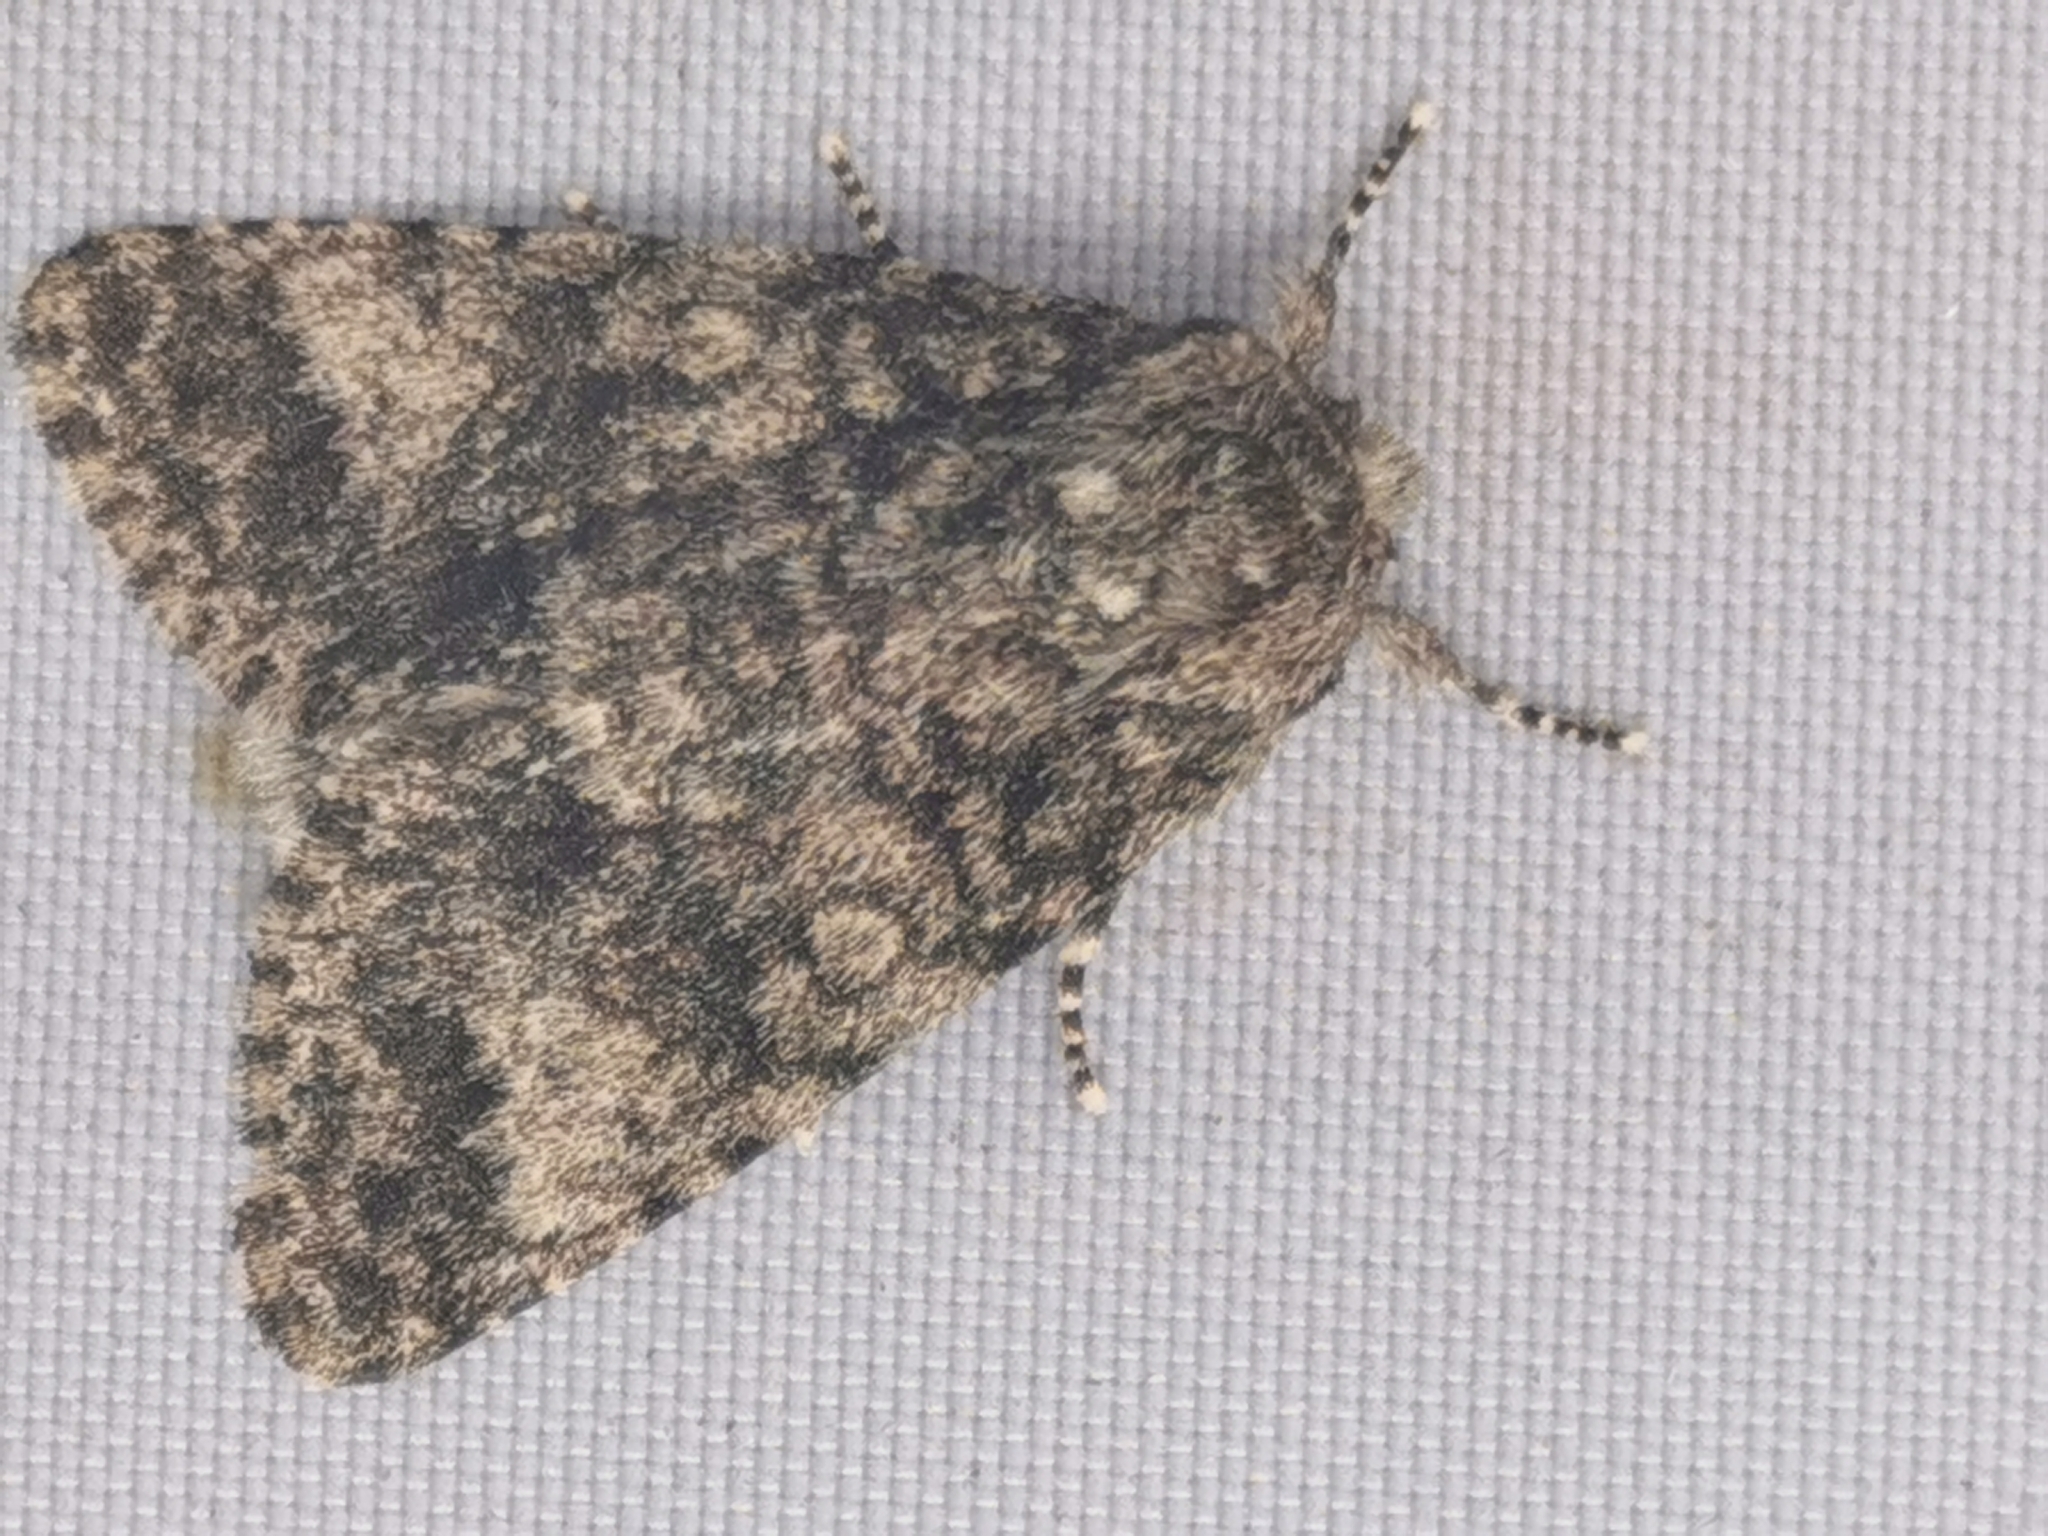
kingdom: Animalia
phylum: Arthropoda
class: Insecta
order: Lepidoptera
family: Noctuidae
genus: Acronicta
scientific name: Acronicta megacephala
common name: Poplar grey
